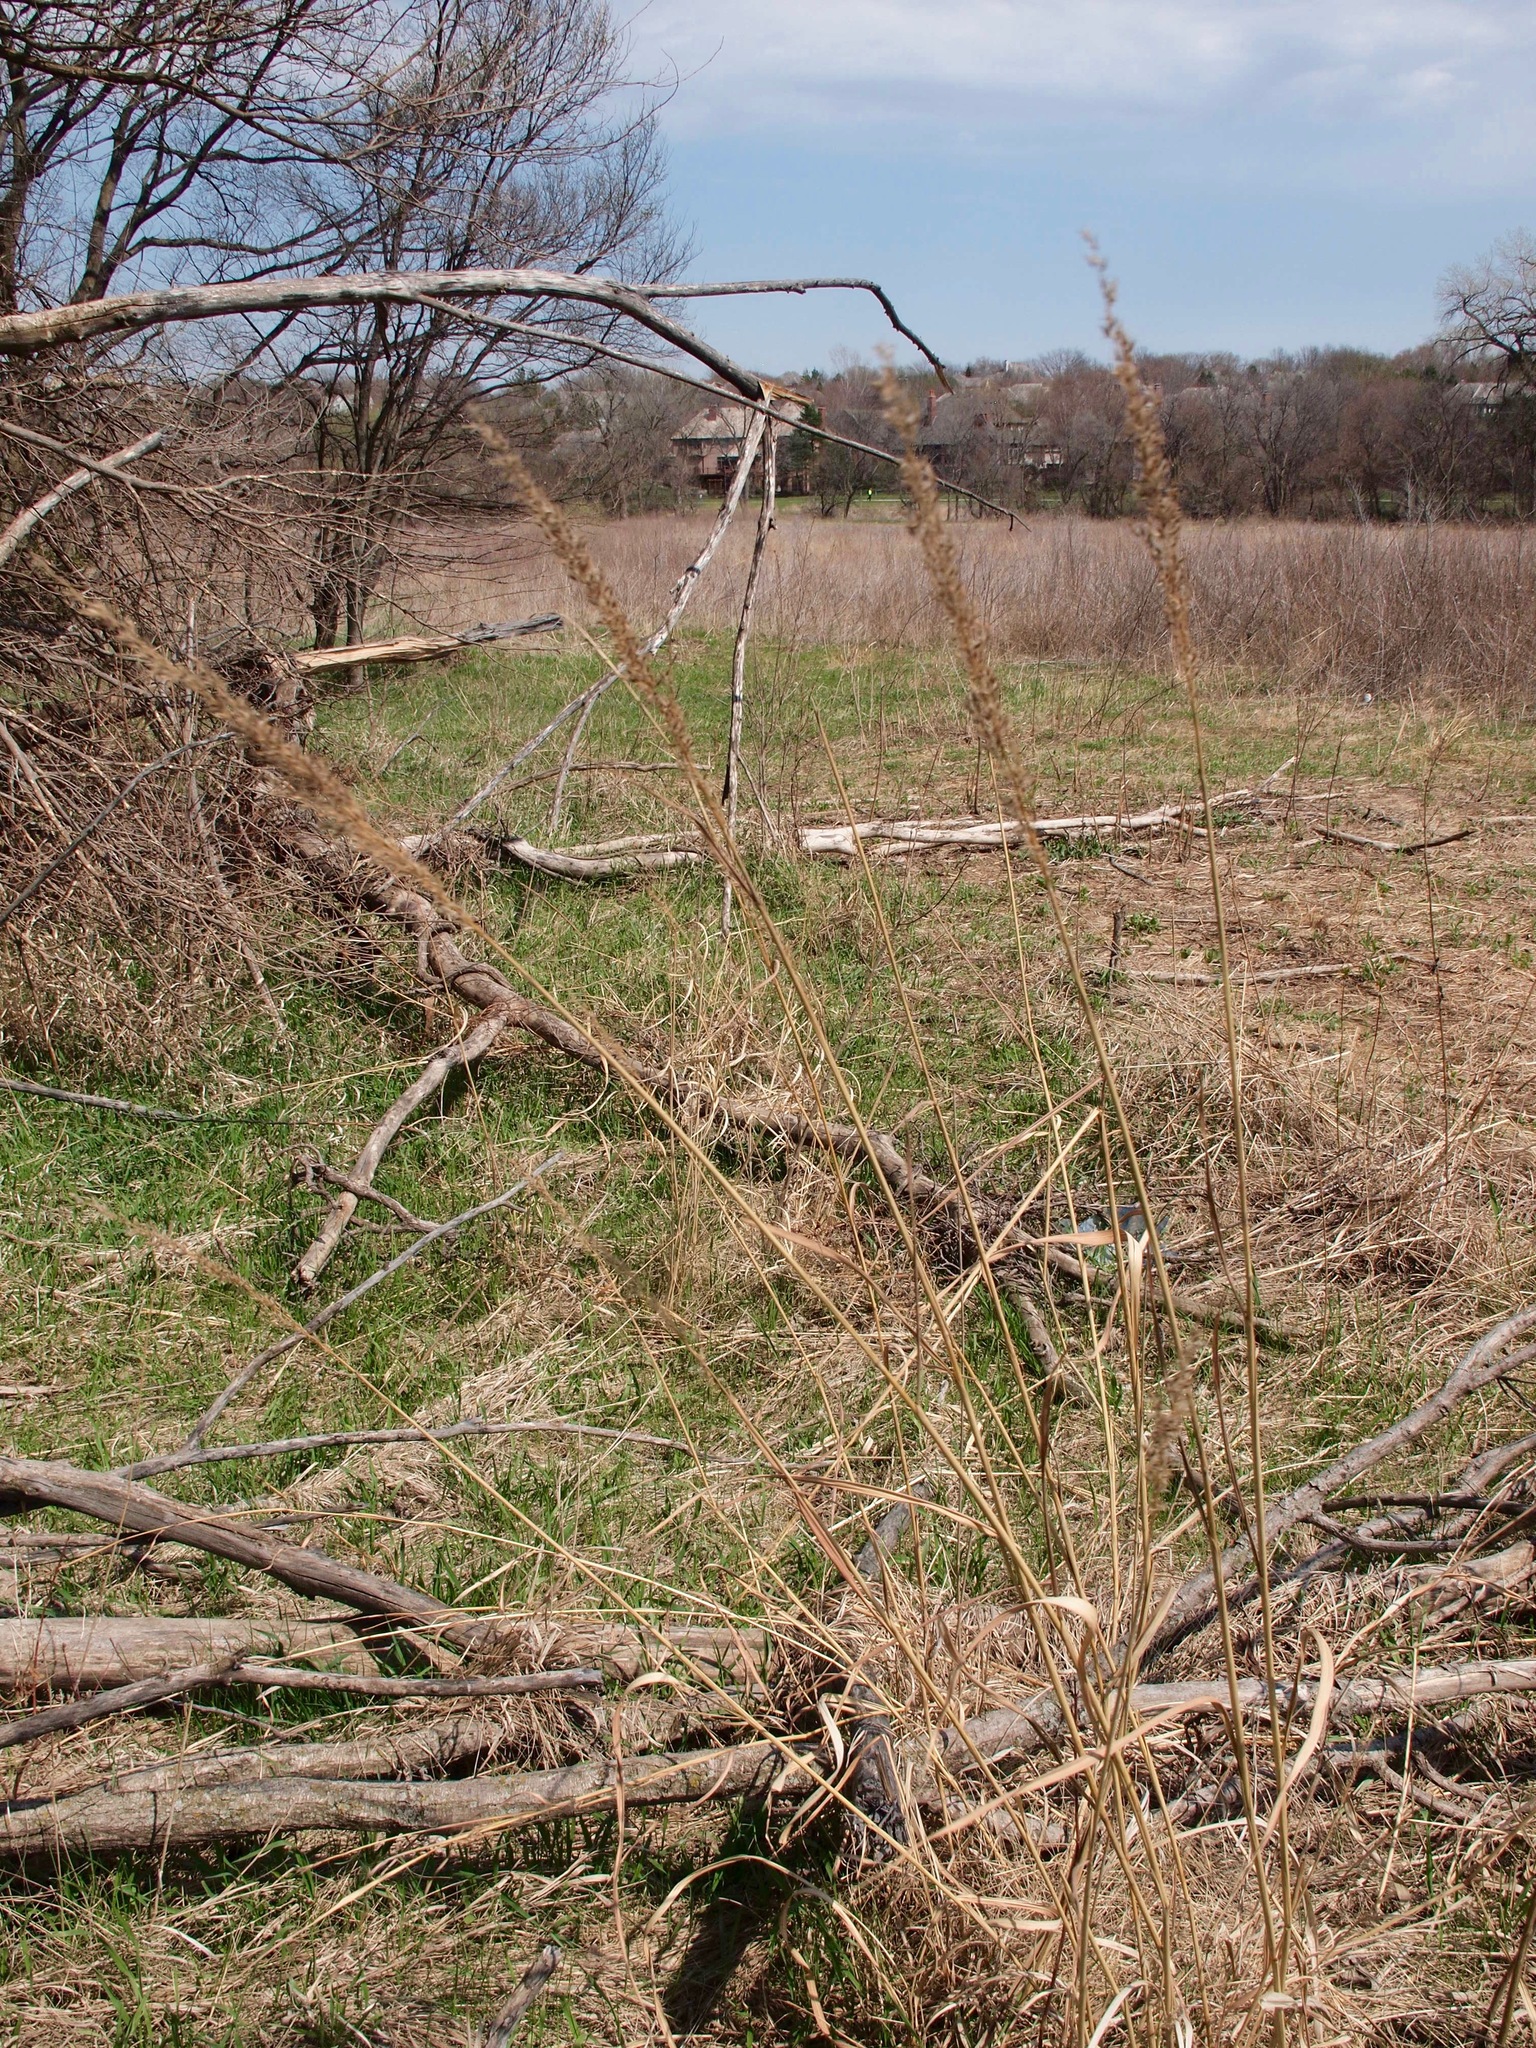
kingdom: Plantae
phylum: Tracheophyta
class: Liliopsida
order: Poales
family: Poaceae
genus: Sorghastrum
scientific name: Sorghastrum nutans
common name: Indian grass
